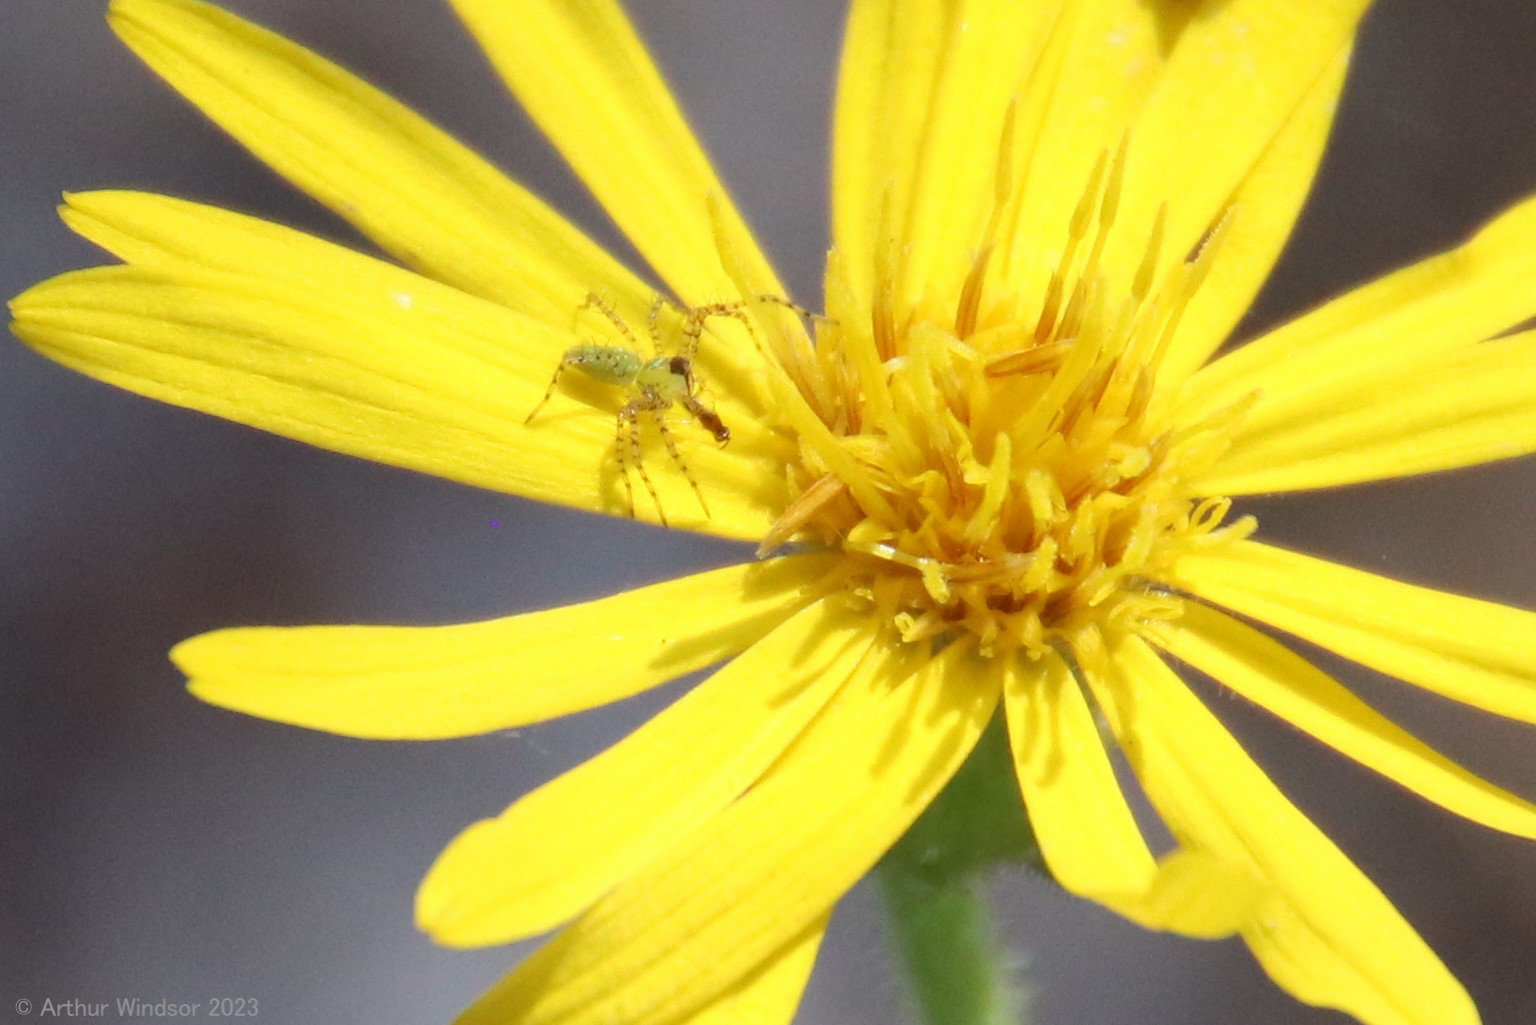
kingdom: Animalia
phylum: Arthropoda
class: Arachnida
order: Araneae
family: Oxyopidae
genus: Peucetia
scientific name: Peucetia viridans
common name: Lynx spiders
